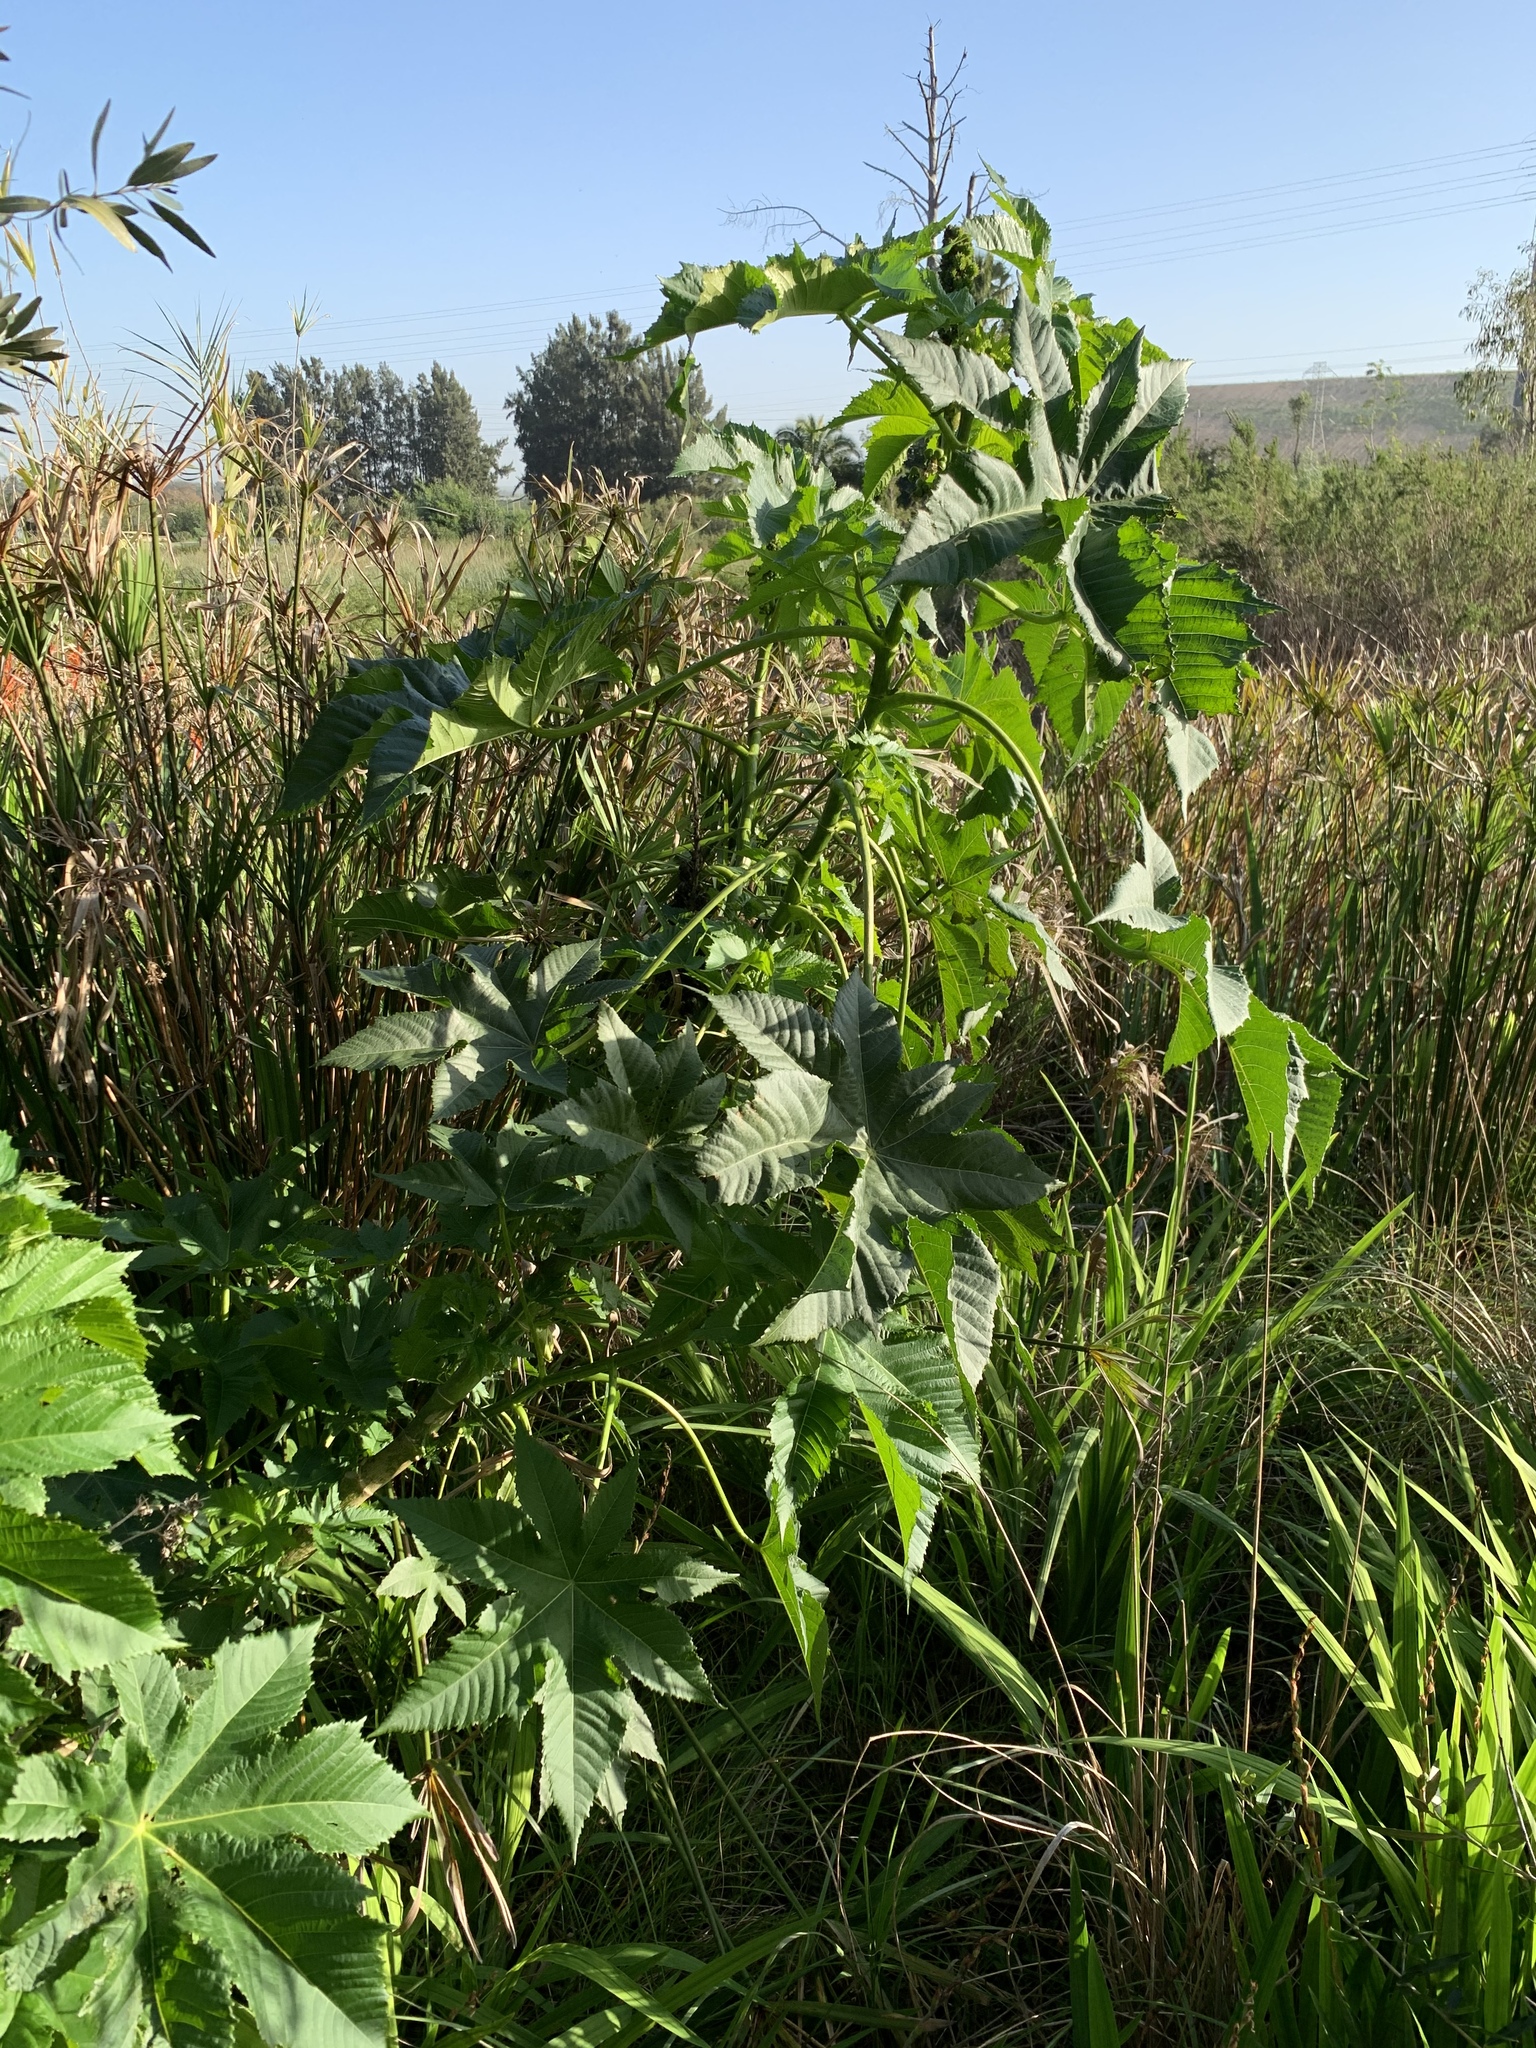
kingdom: Plantae
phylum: Tracheophyta
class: Magnoliopsida
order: Malpighiales
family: Euphorbiaceae
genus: Ricinus
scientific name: Ricinus communis
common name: Castor-oil-plant
